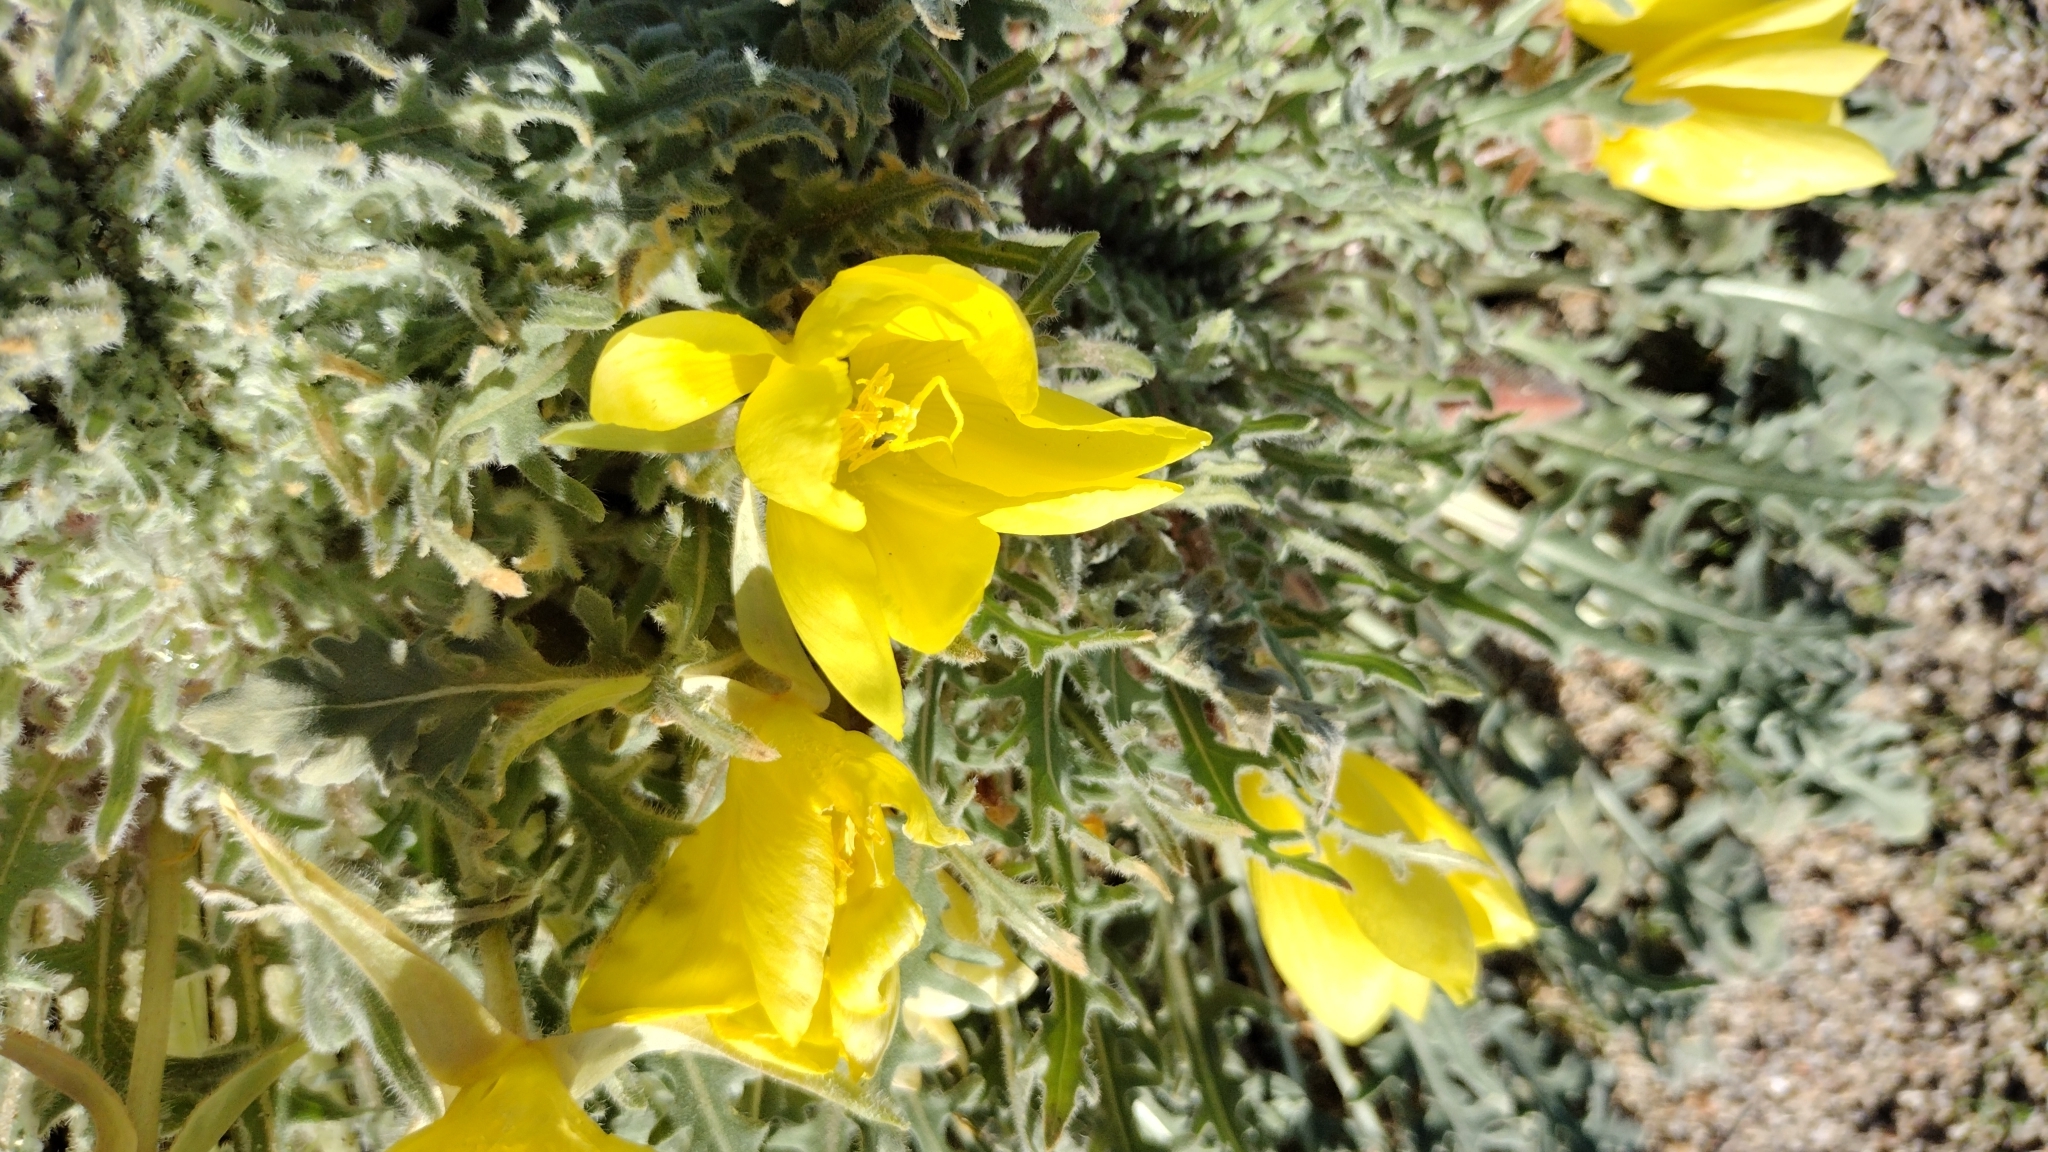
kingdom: Plantae
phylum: Tracheophyta
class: Magnoliopsida
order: Myrtales
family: Onagraceae
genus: Oenothera
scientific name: Oenothera primiveris
